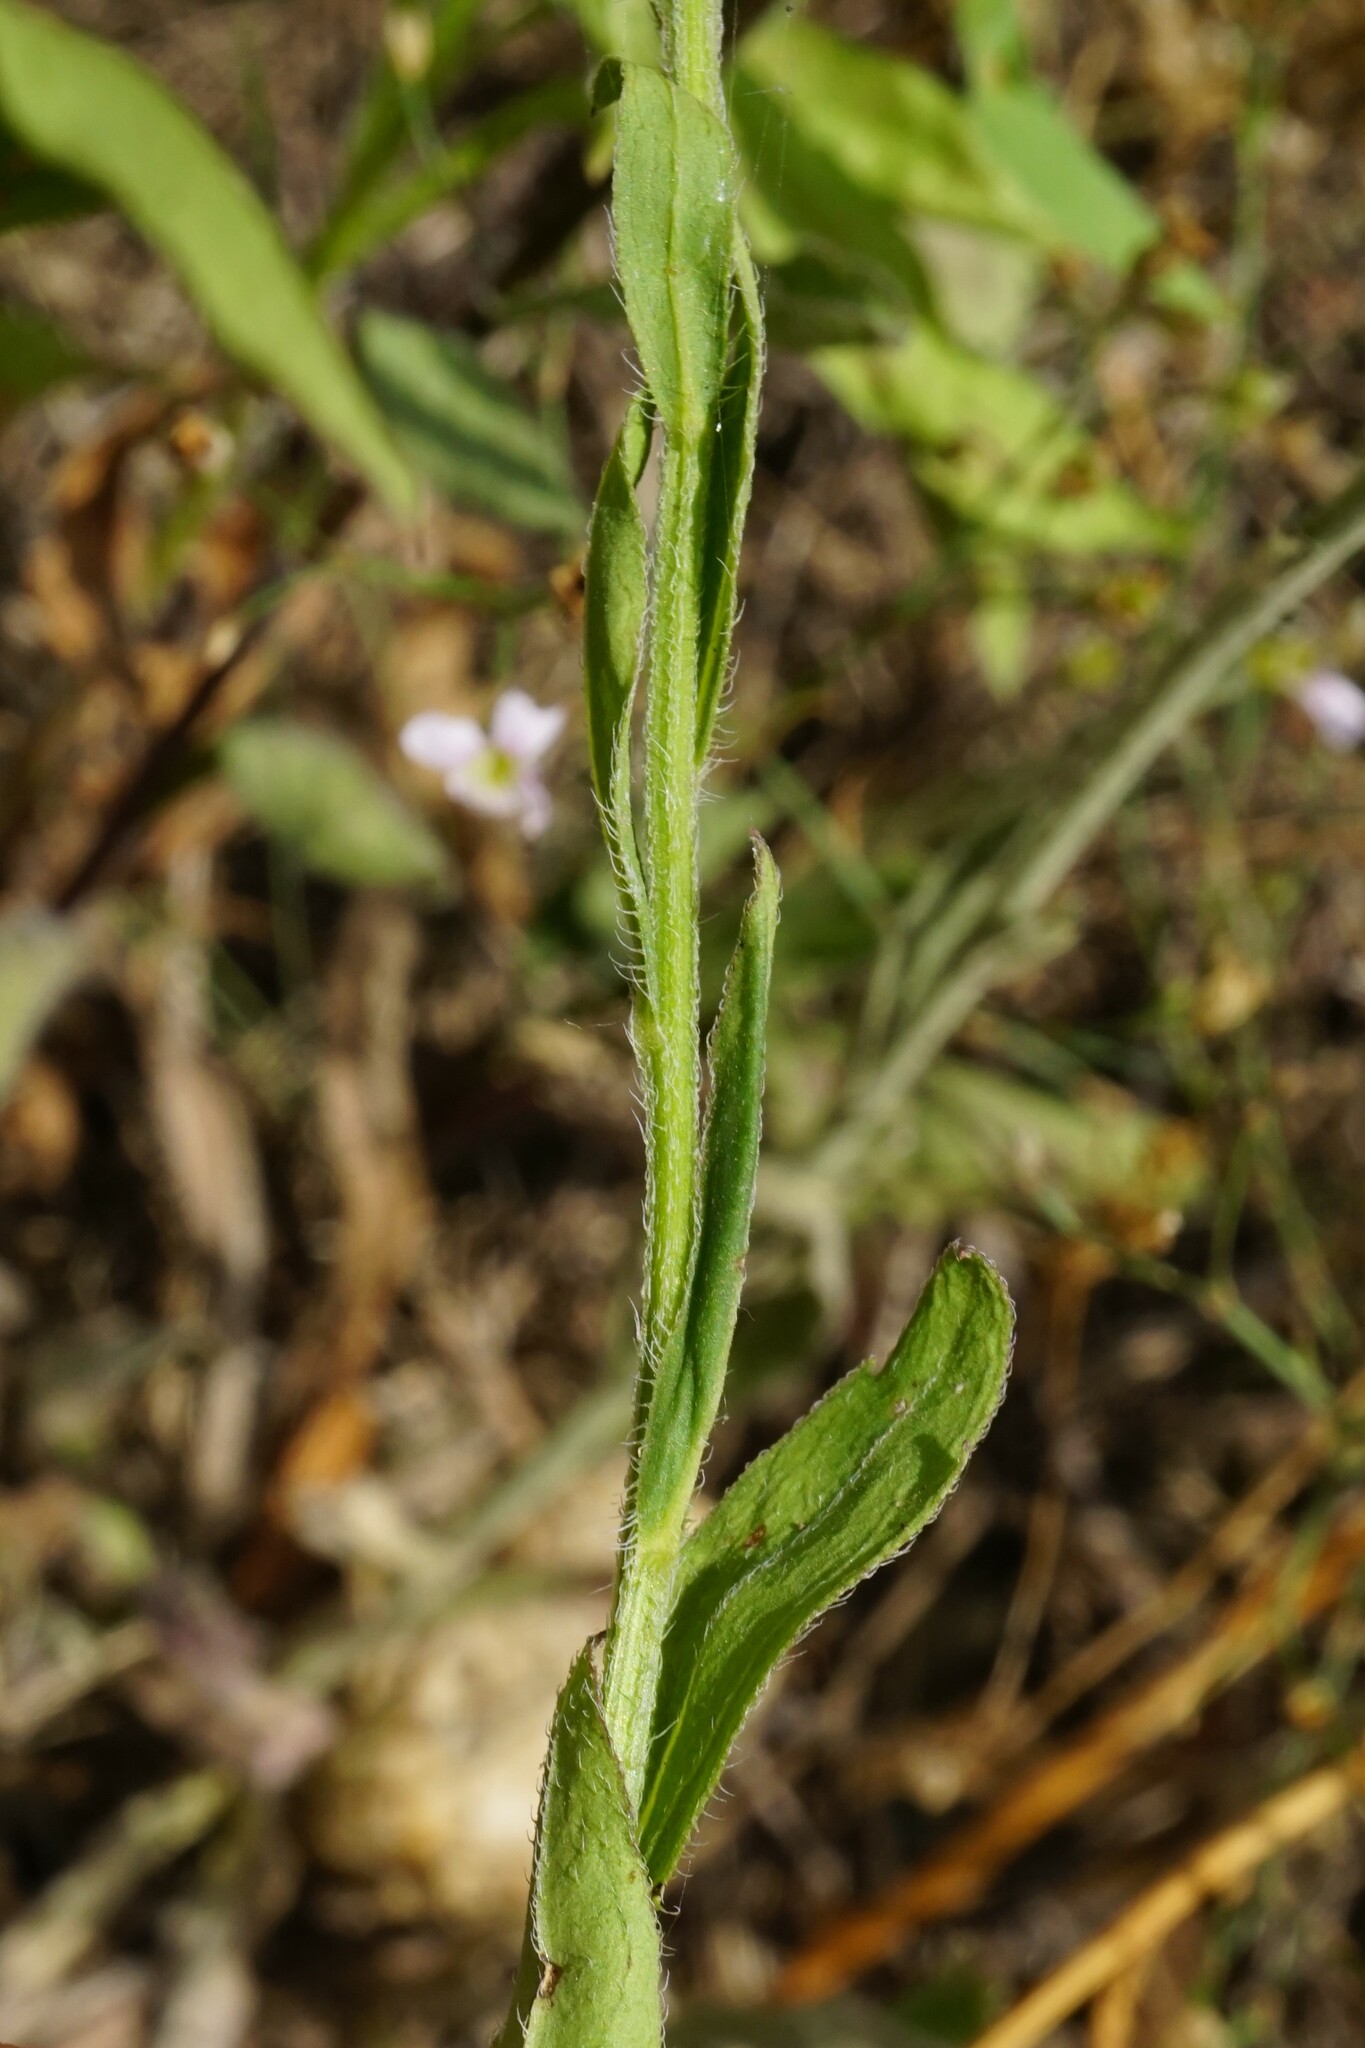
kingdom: Plantae
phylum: Tracheophyta
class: Magnoliopsida
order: Asterales
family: Asteraceae
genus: Erigeron
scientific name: Erigeron annuus
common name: Tall fleabane
